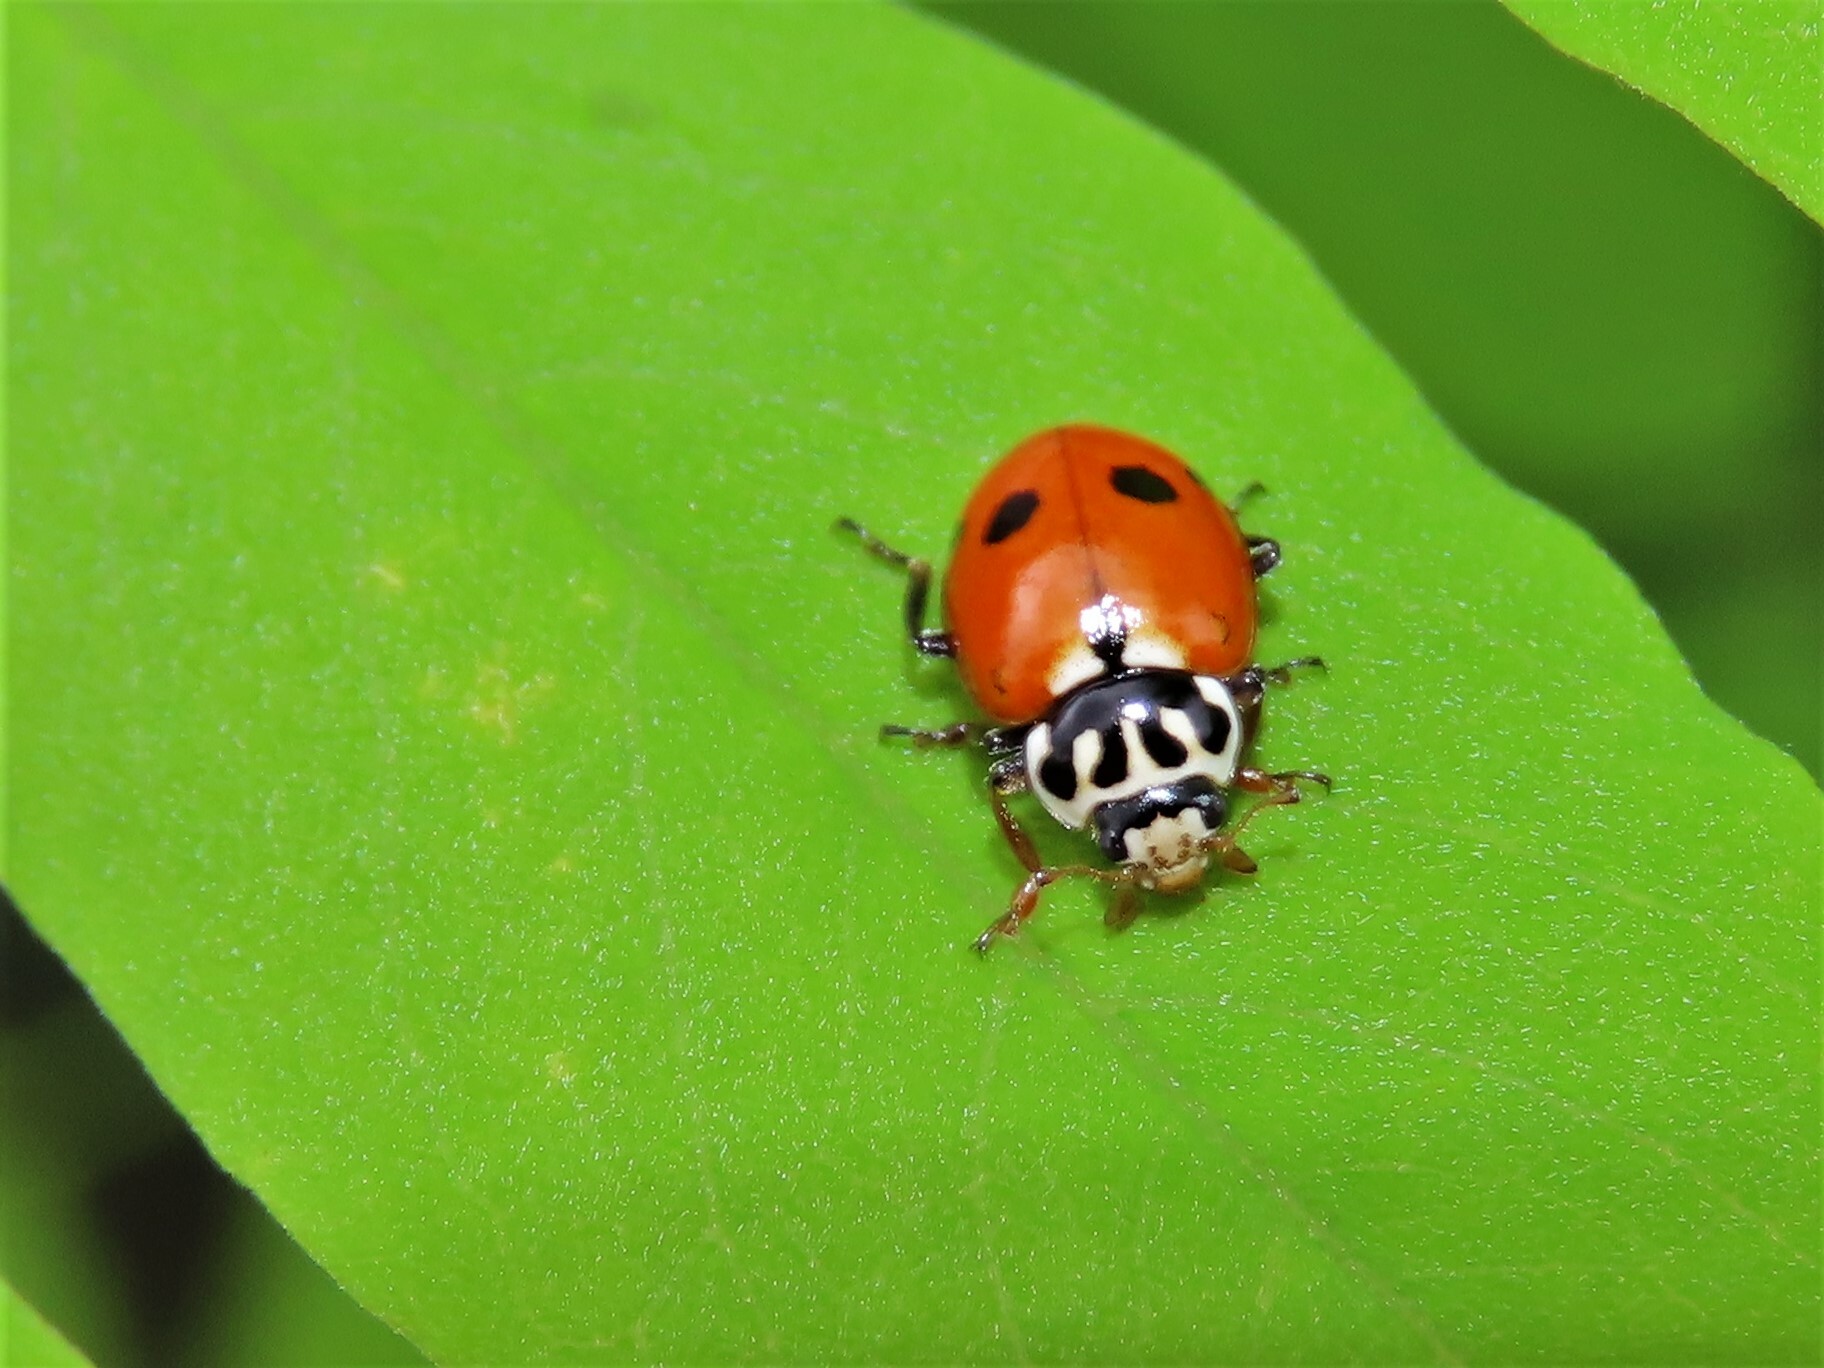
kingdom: Animalia
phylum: Arthropoda
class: Insecta
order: Coleoptera
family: Coccinellidae
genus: Hippodamia
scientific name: Hippodamia variegata
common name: Ladybird beetle
